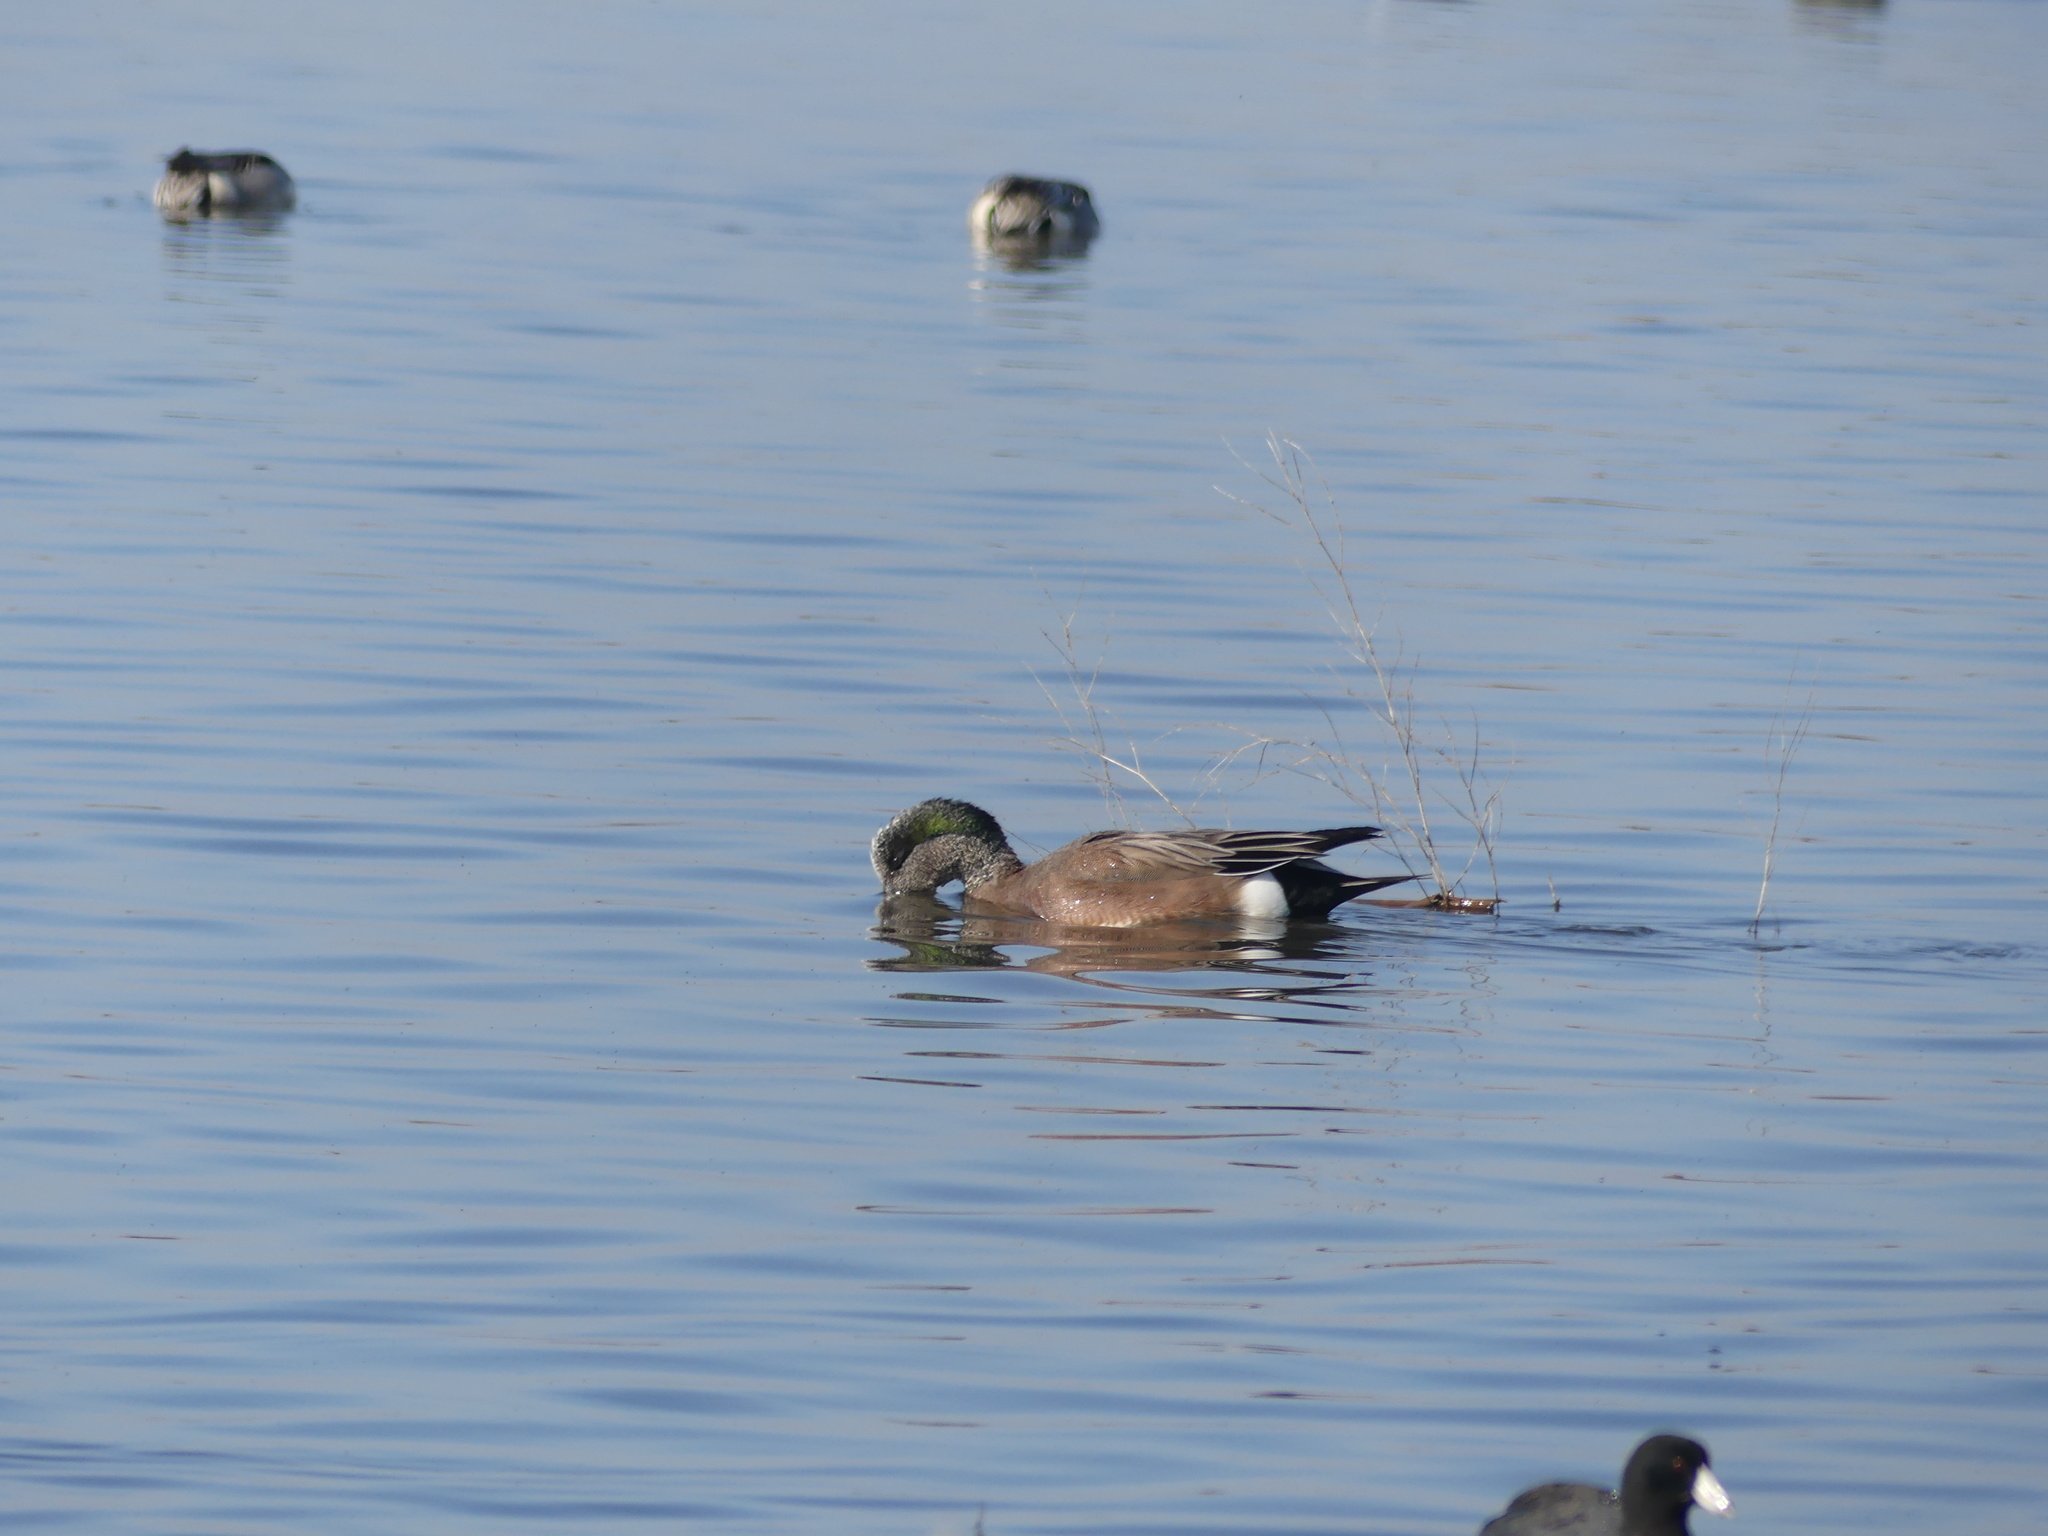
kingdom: Animalia
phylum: Chordata
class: Aves
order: Anseriformes
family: Anatidae
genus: Mareca
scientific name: Mareca americana
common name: American wigeon
